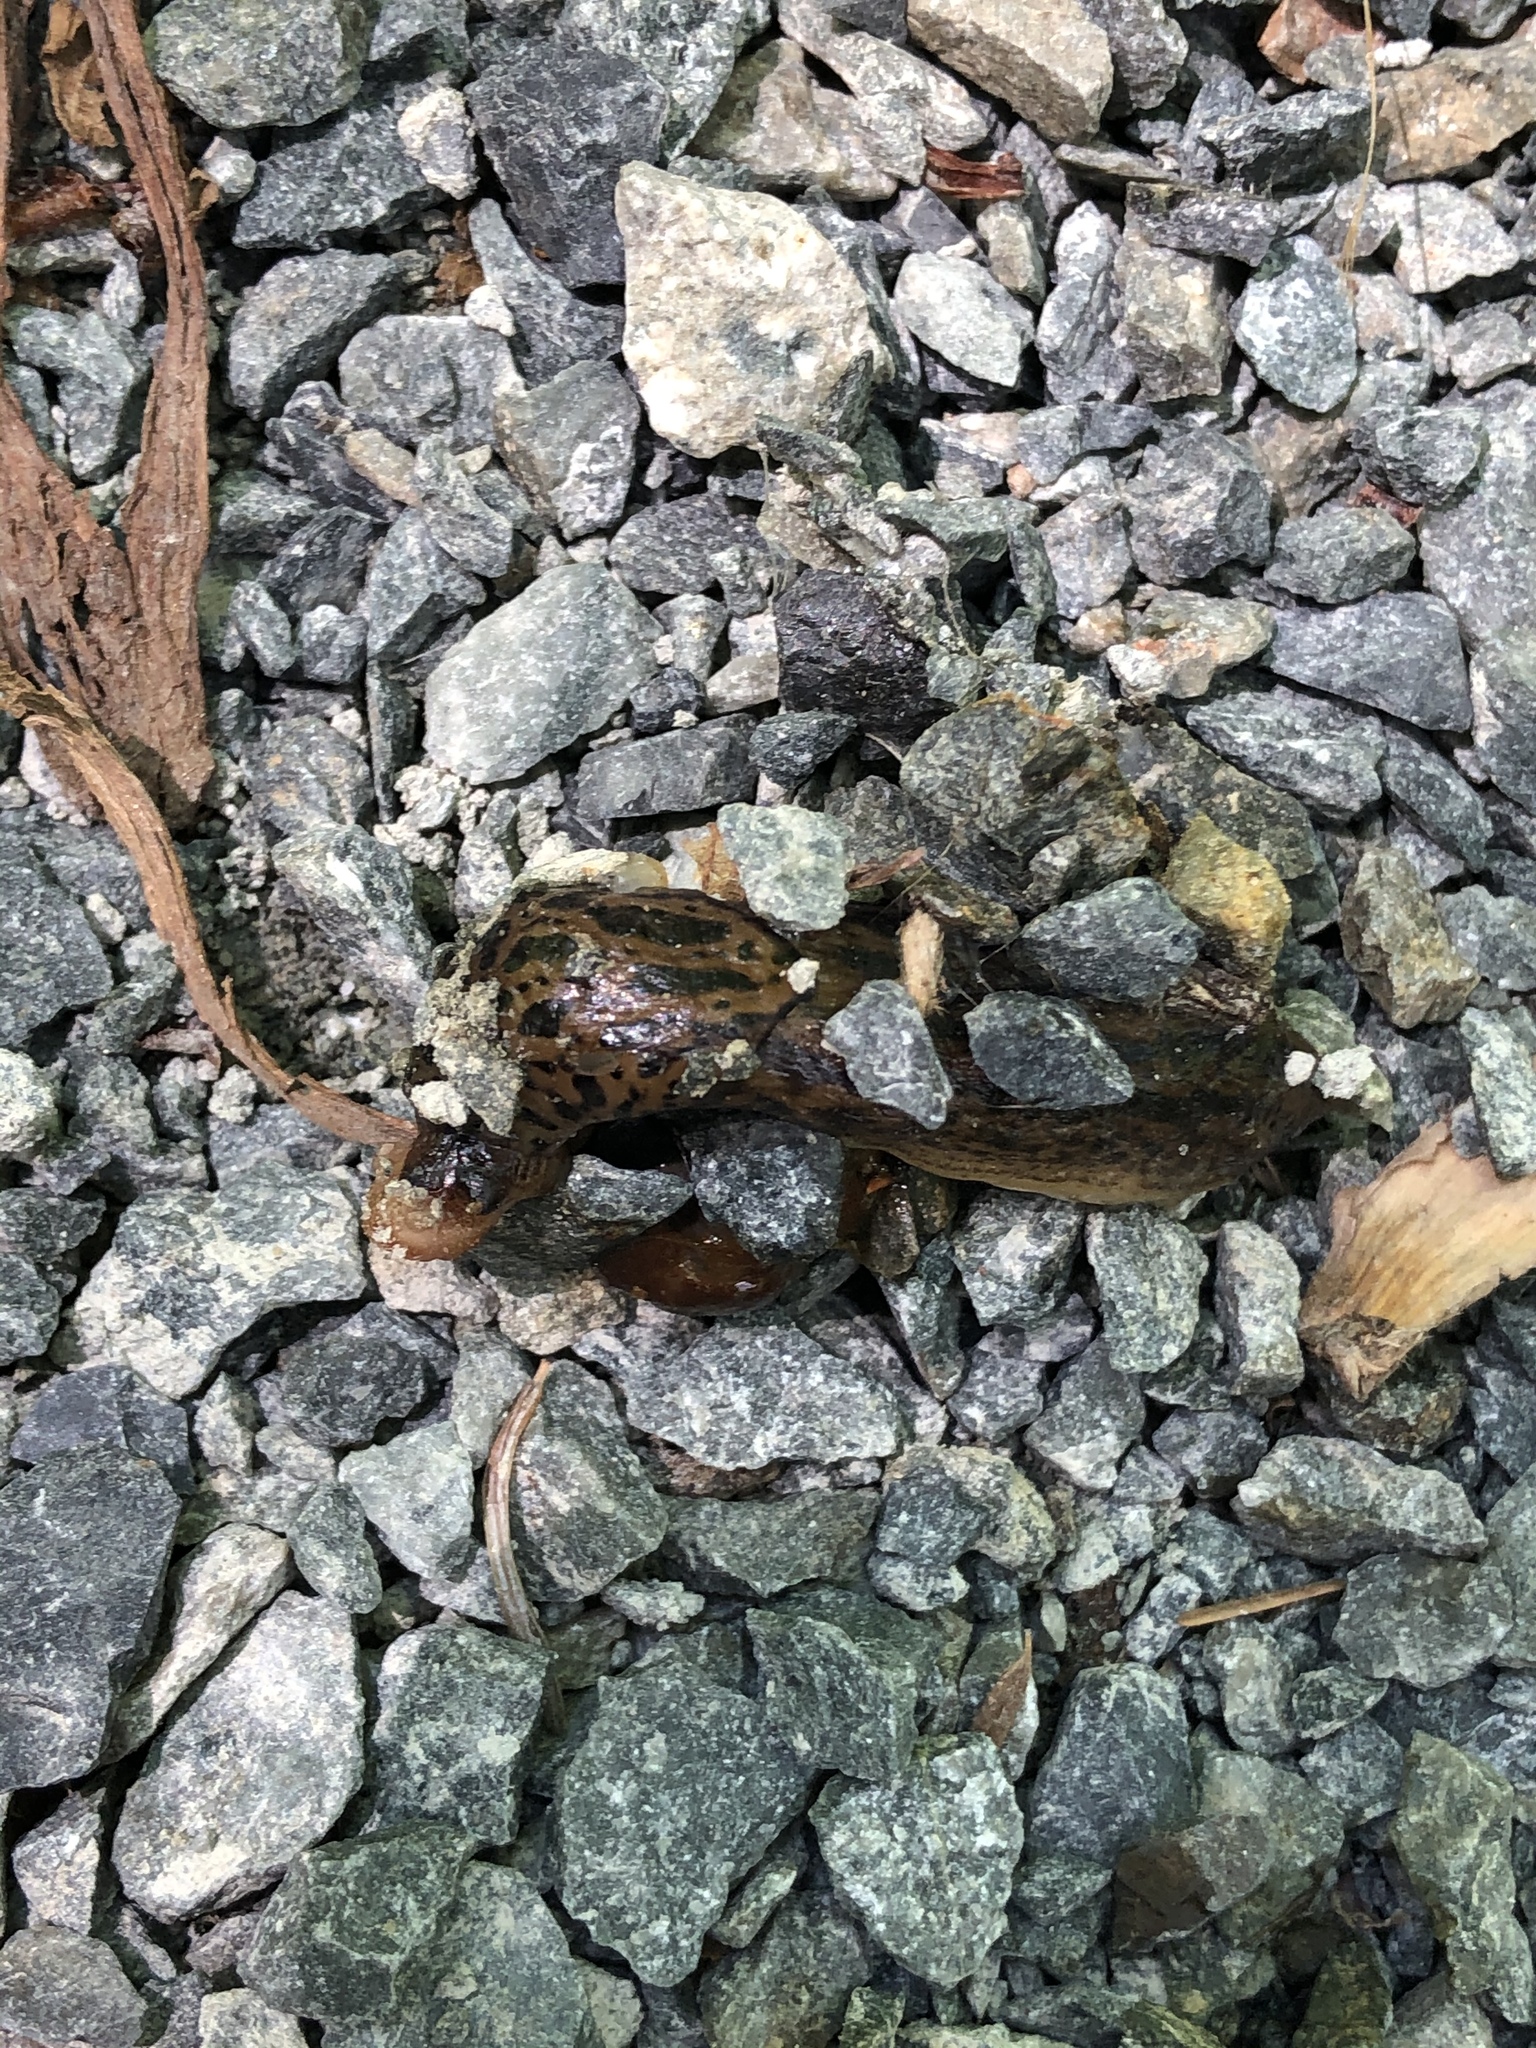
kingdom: Animalia
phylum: Mollusca
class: Gastropoda
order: Stylommatophora
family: Limacidae
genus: Limax
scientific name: Limax maximus
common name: Great grey slug
